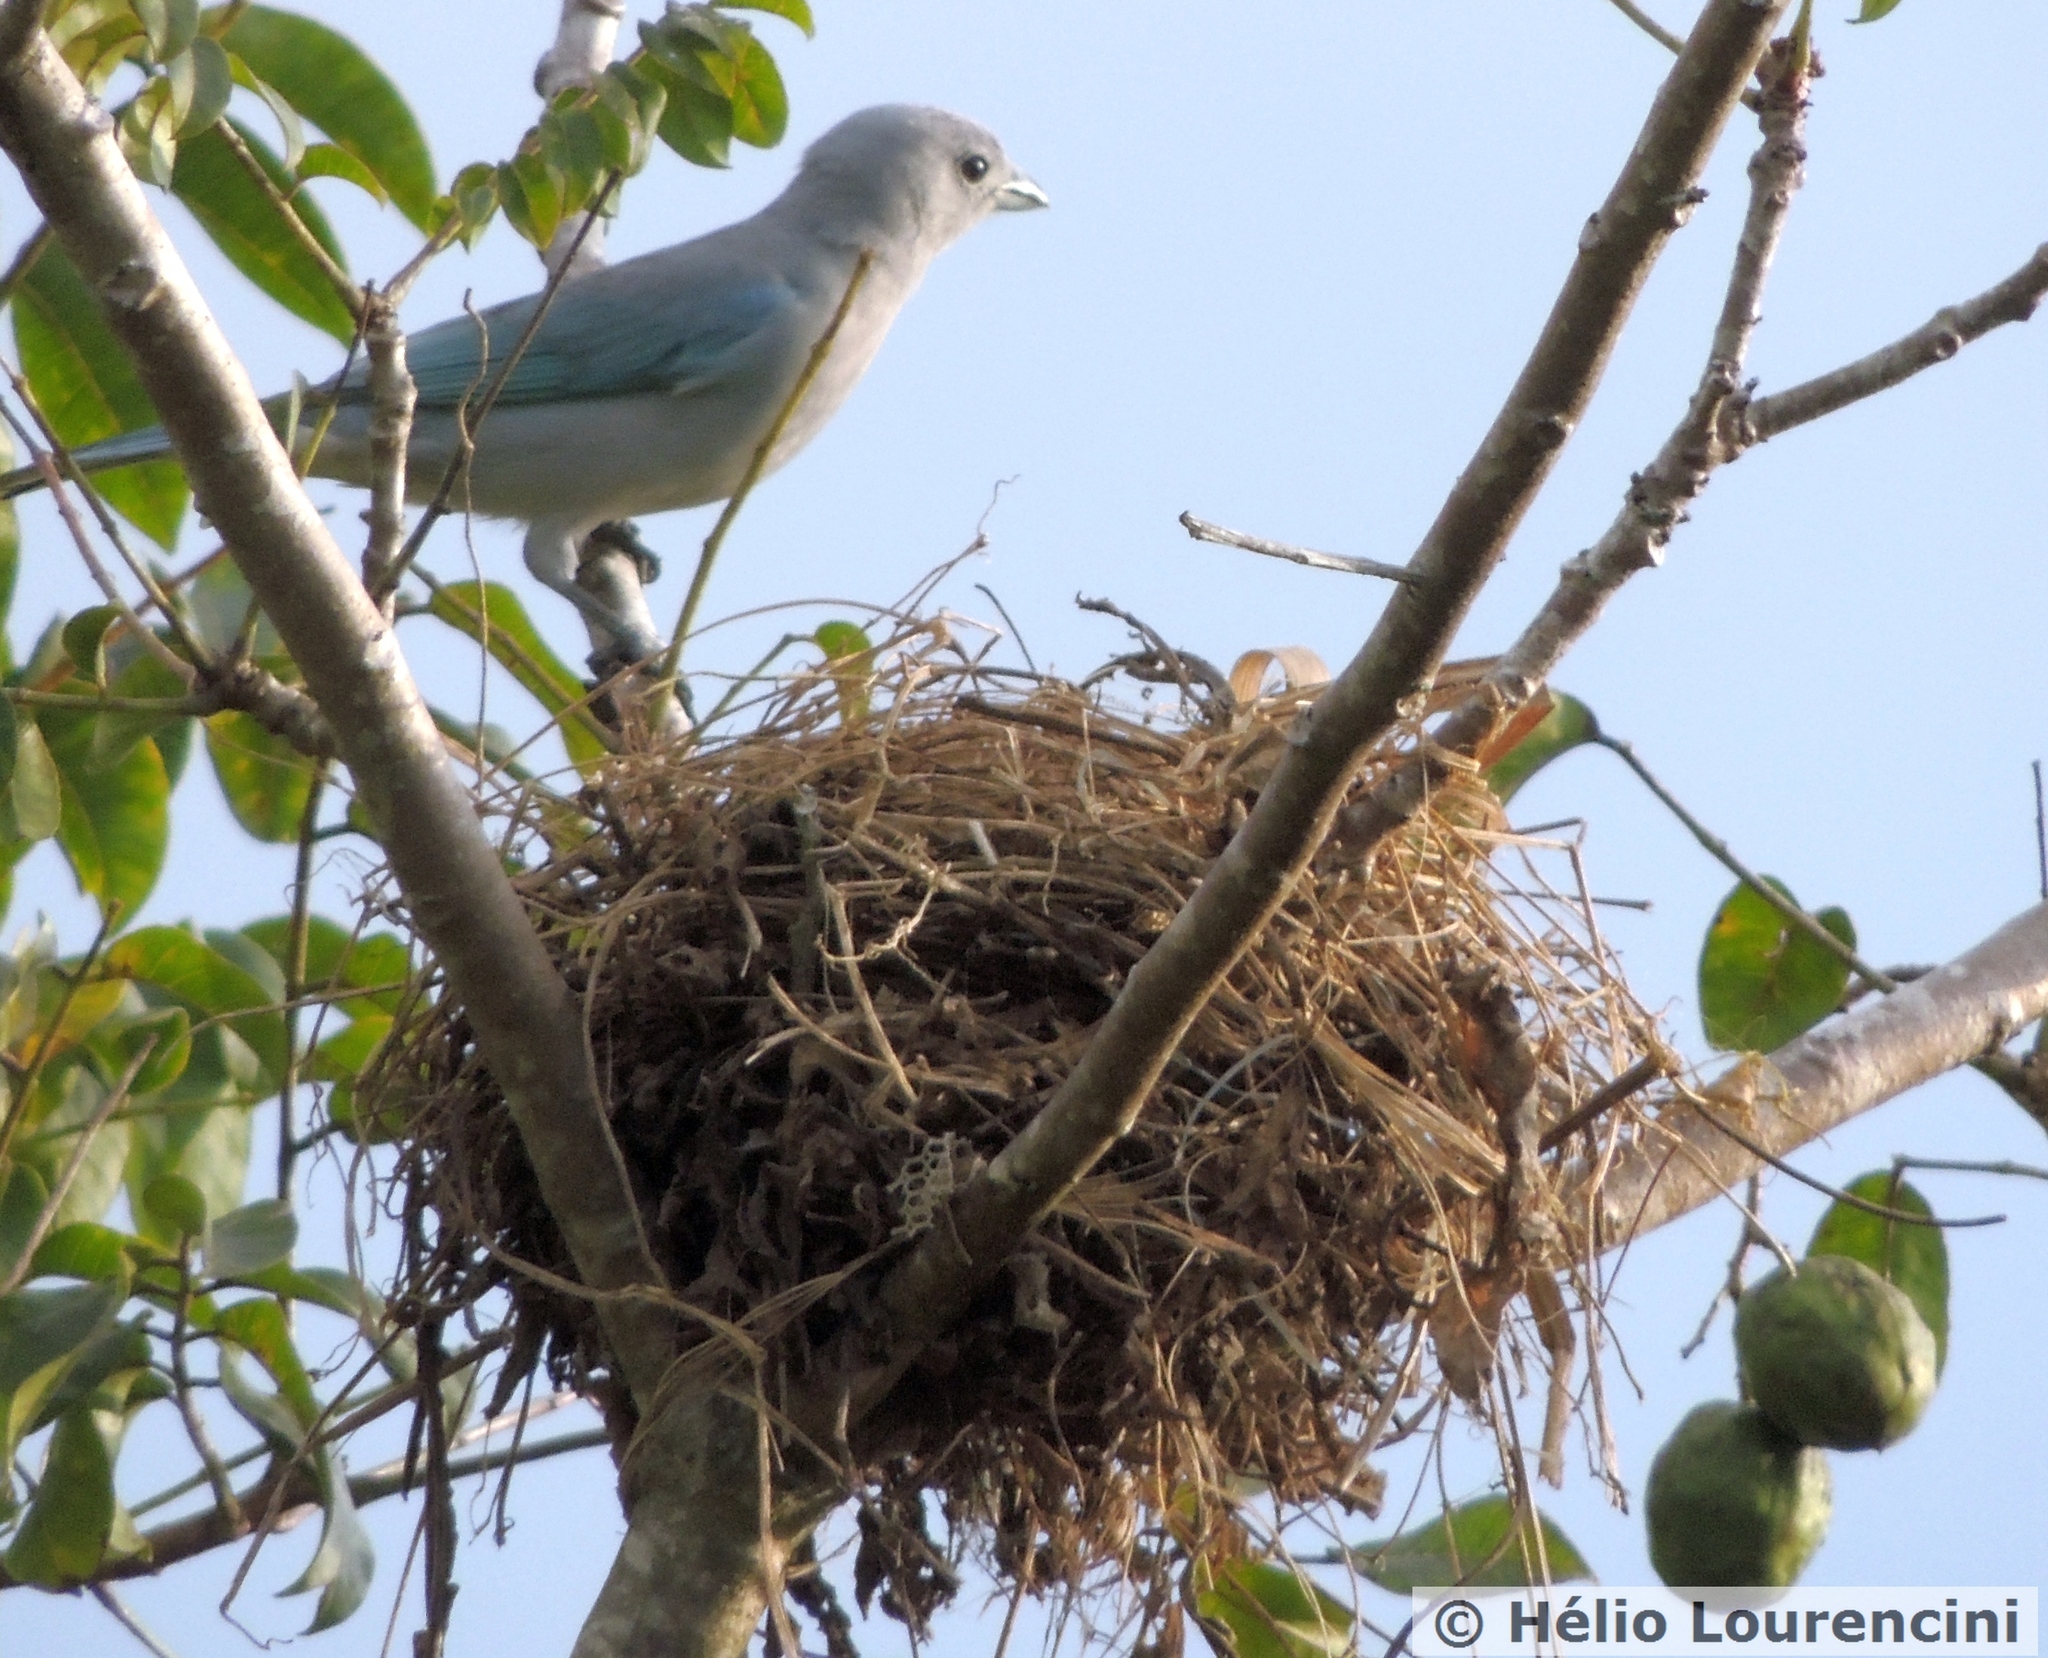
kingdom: Animalia
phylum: Chordata
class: Aves
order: Passeriformes
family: Thraupidae
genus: Thraupis
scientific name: Thraupis sayaca
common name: Sayaca tanager
